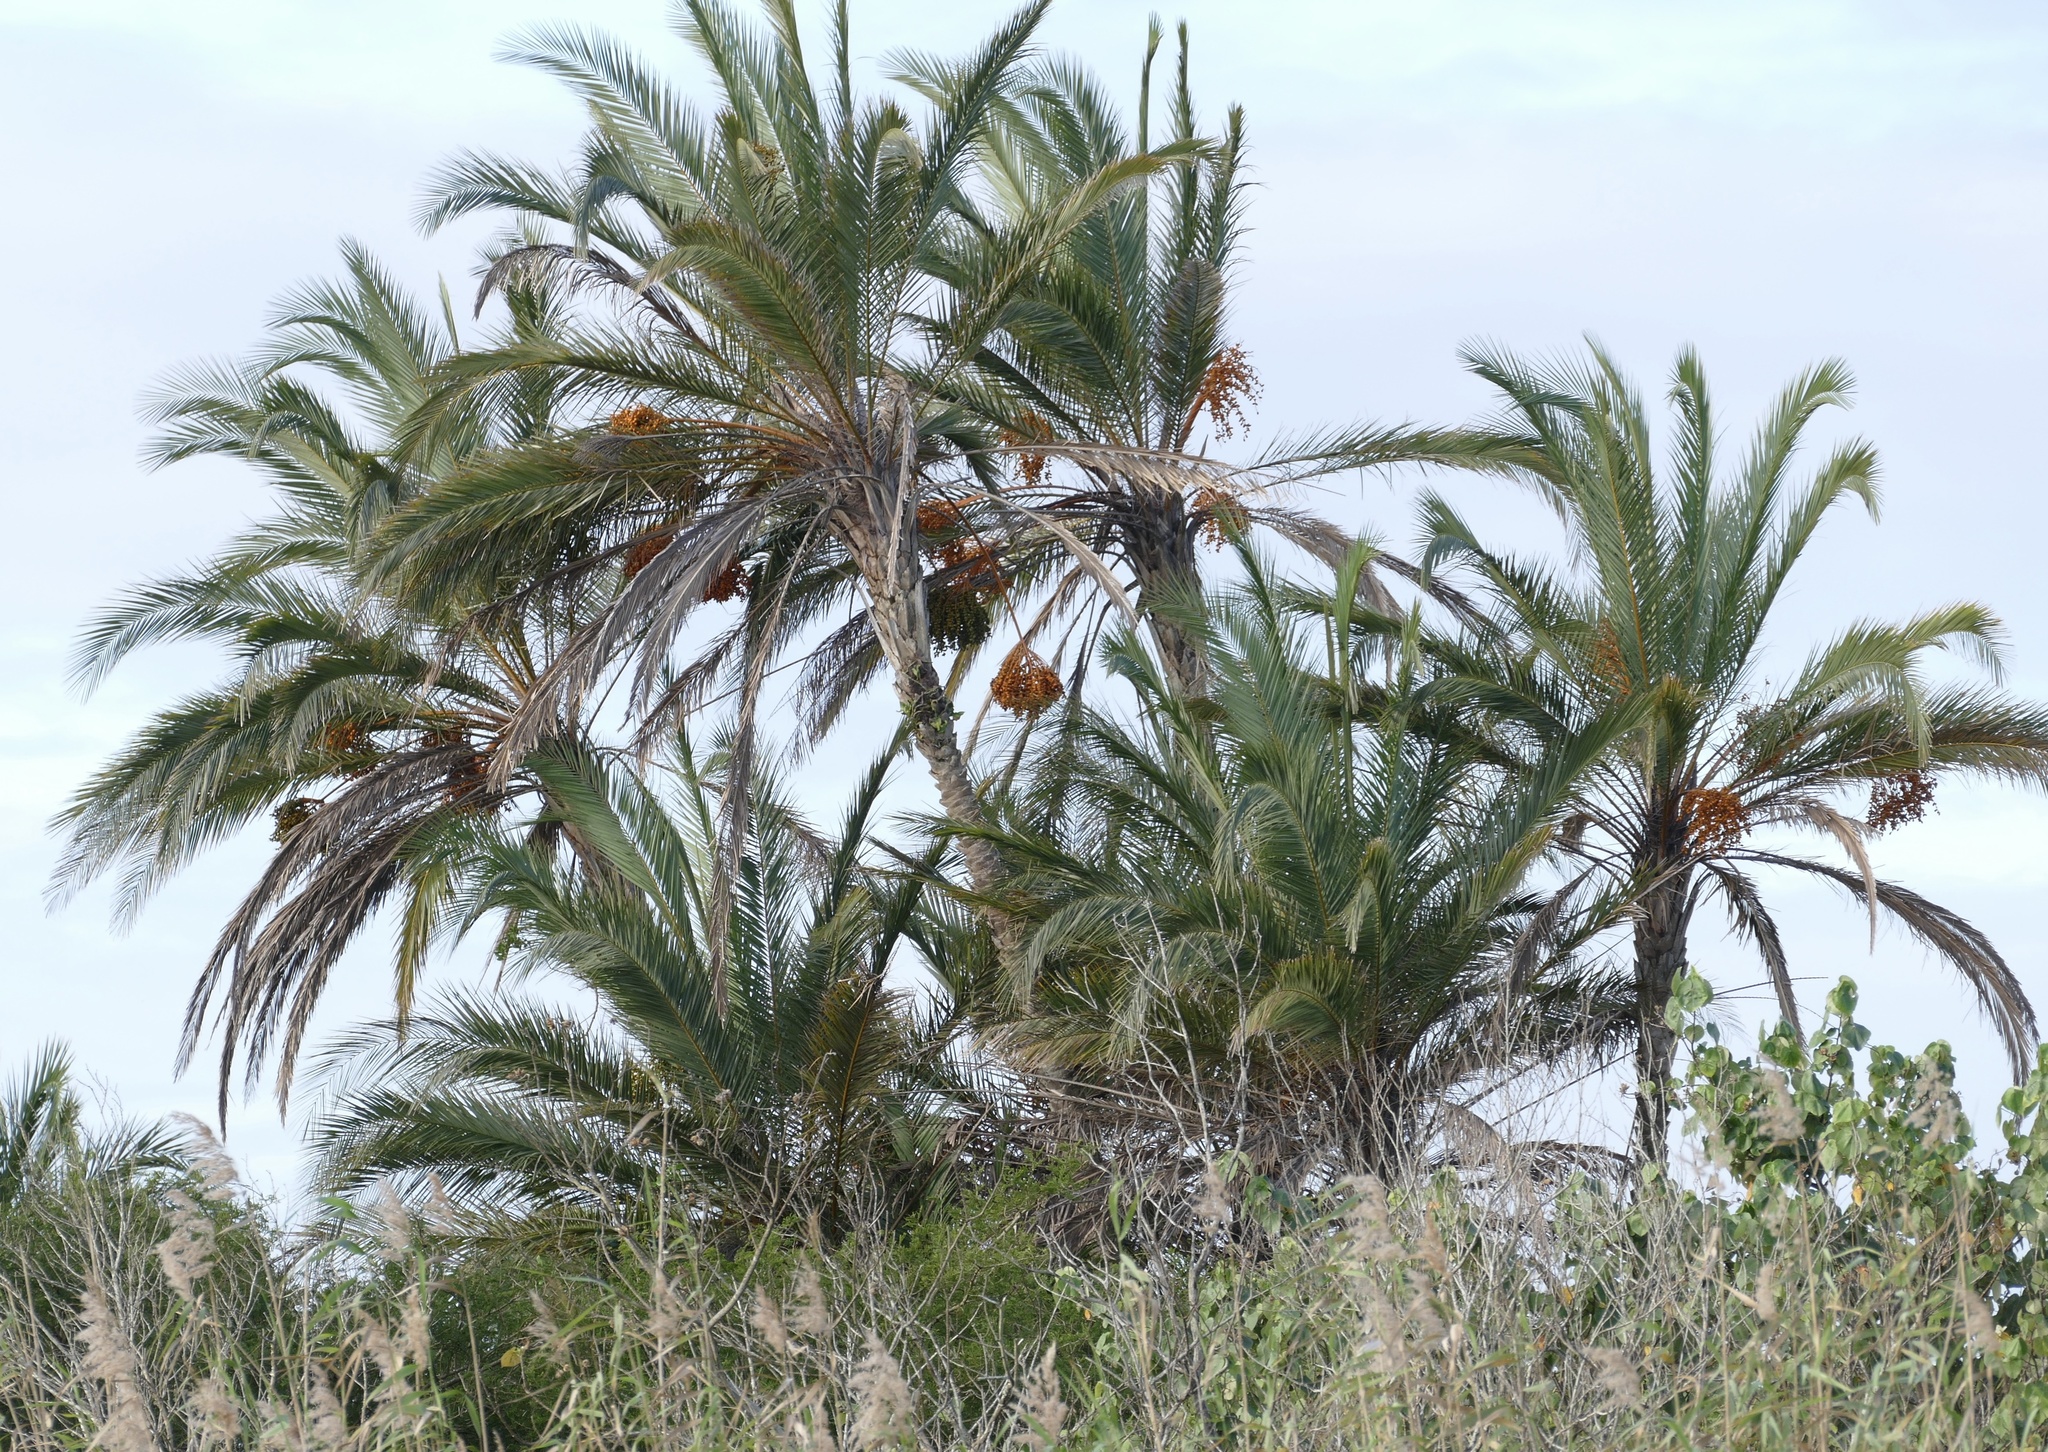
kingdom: Plantae
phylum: Tracheophyta
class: Liliopsida
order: Arecales
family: Arecaceae
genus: Phoenix
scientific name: Phoenix reclinata
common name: Senegal date palm
